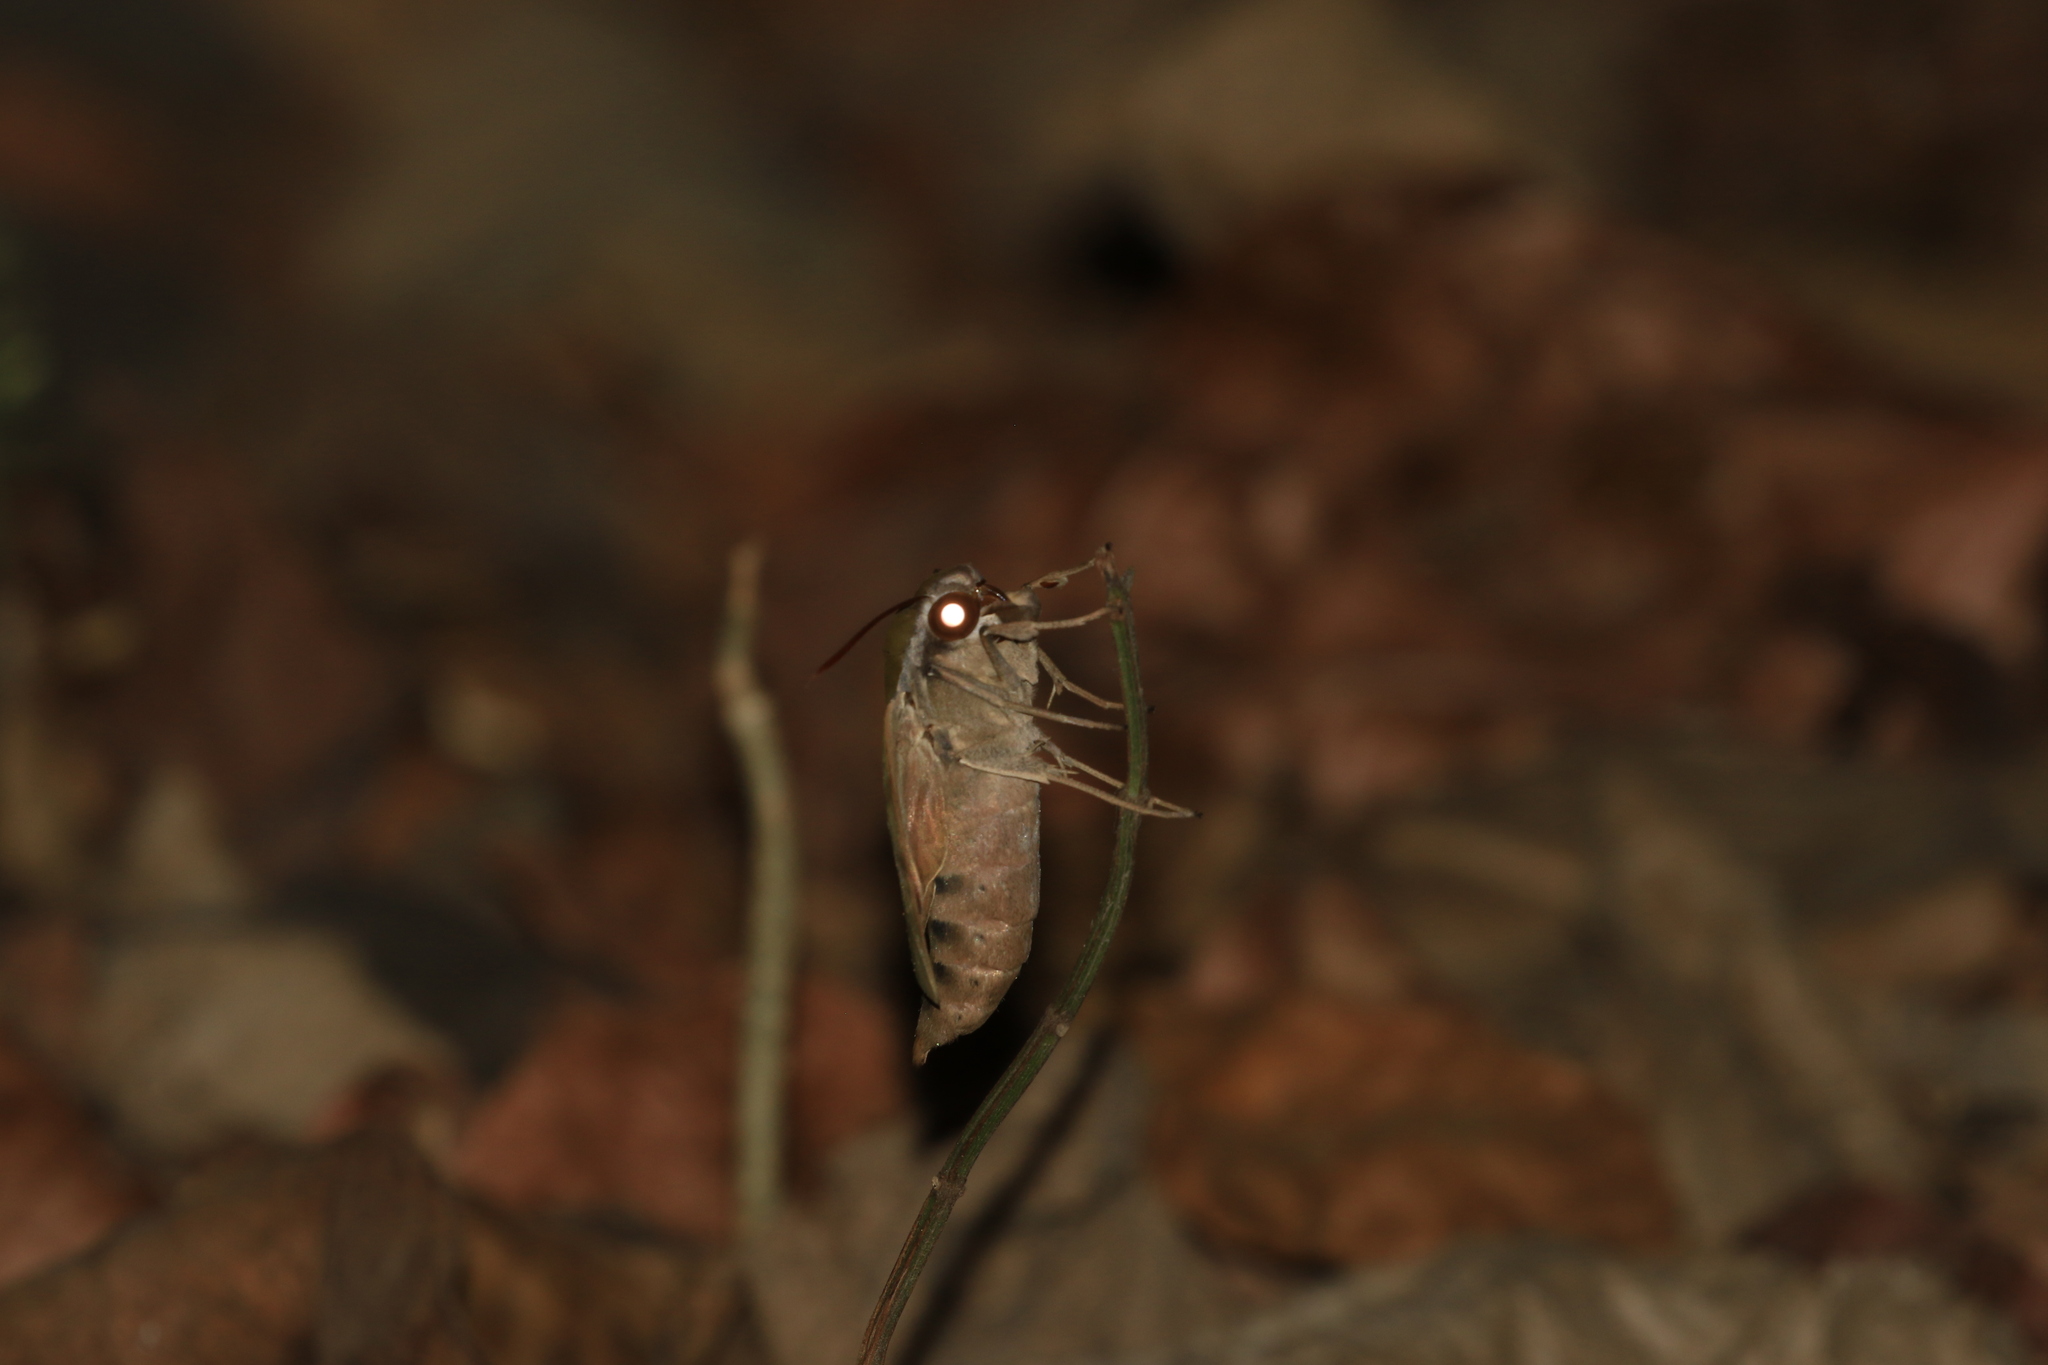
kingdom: Animalia
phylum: Arthropoda
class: Insecta
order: Lepidoptera
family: Sphingidae
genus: Nephele
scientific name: Nephele hespera
